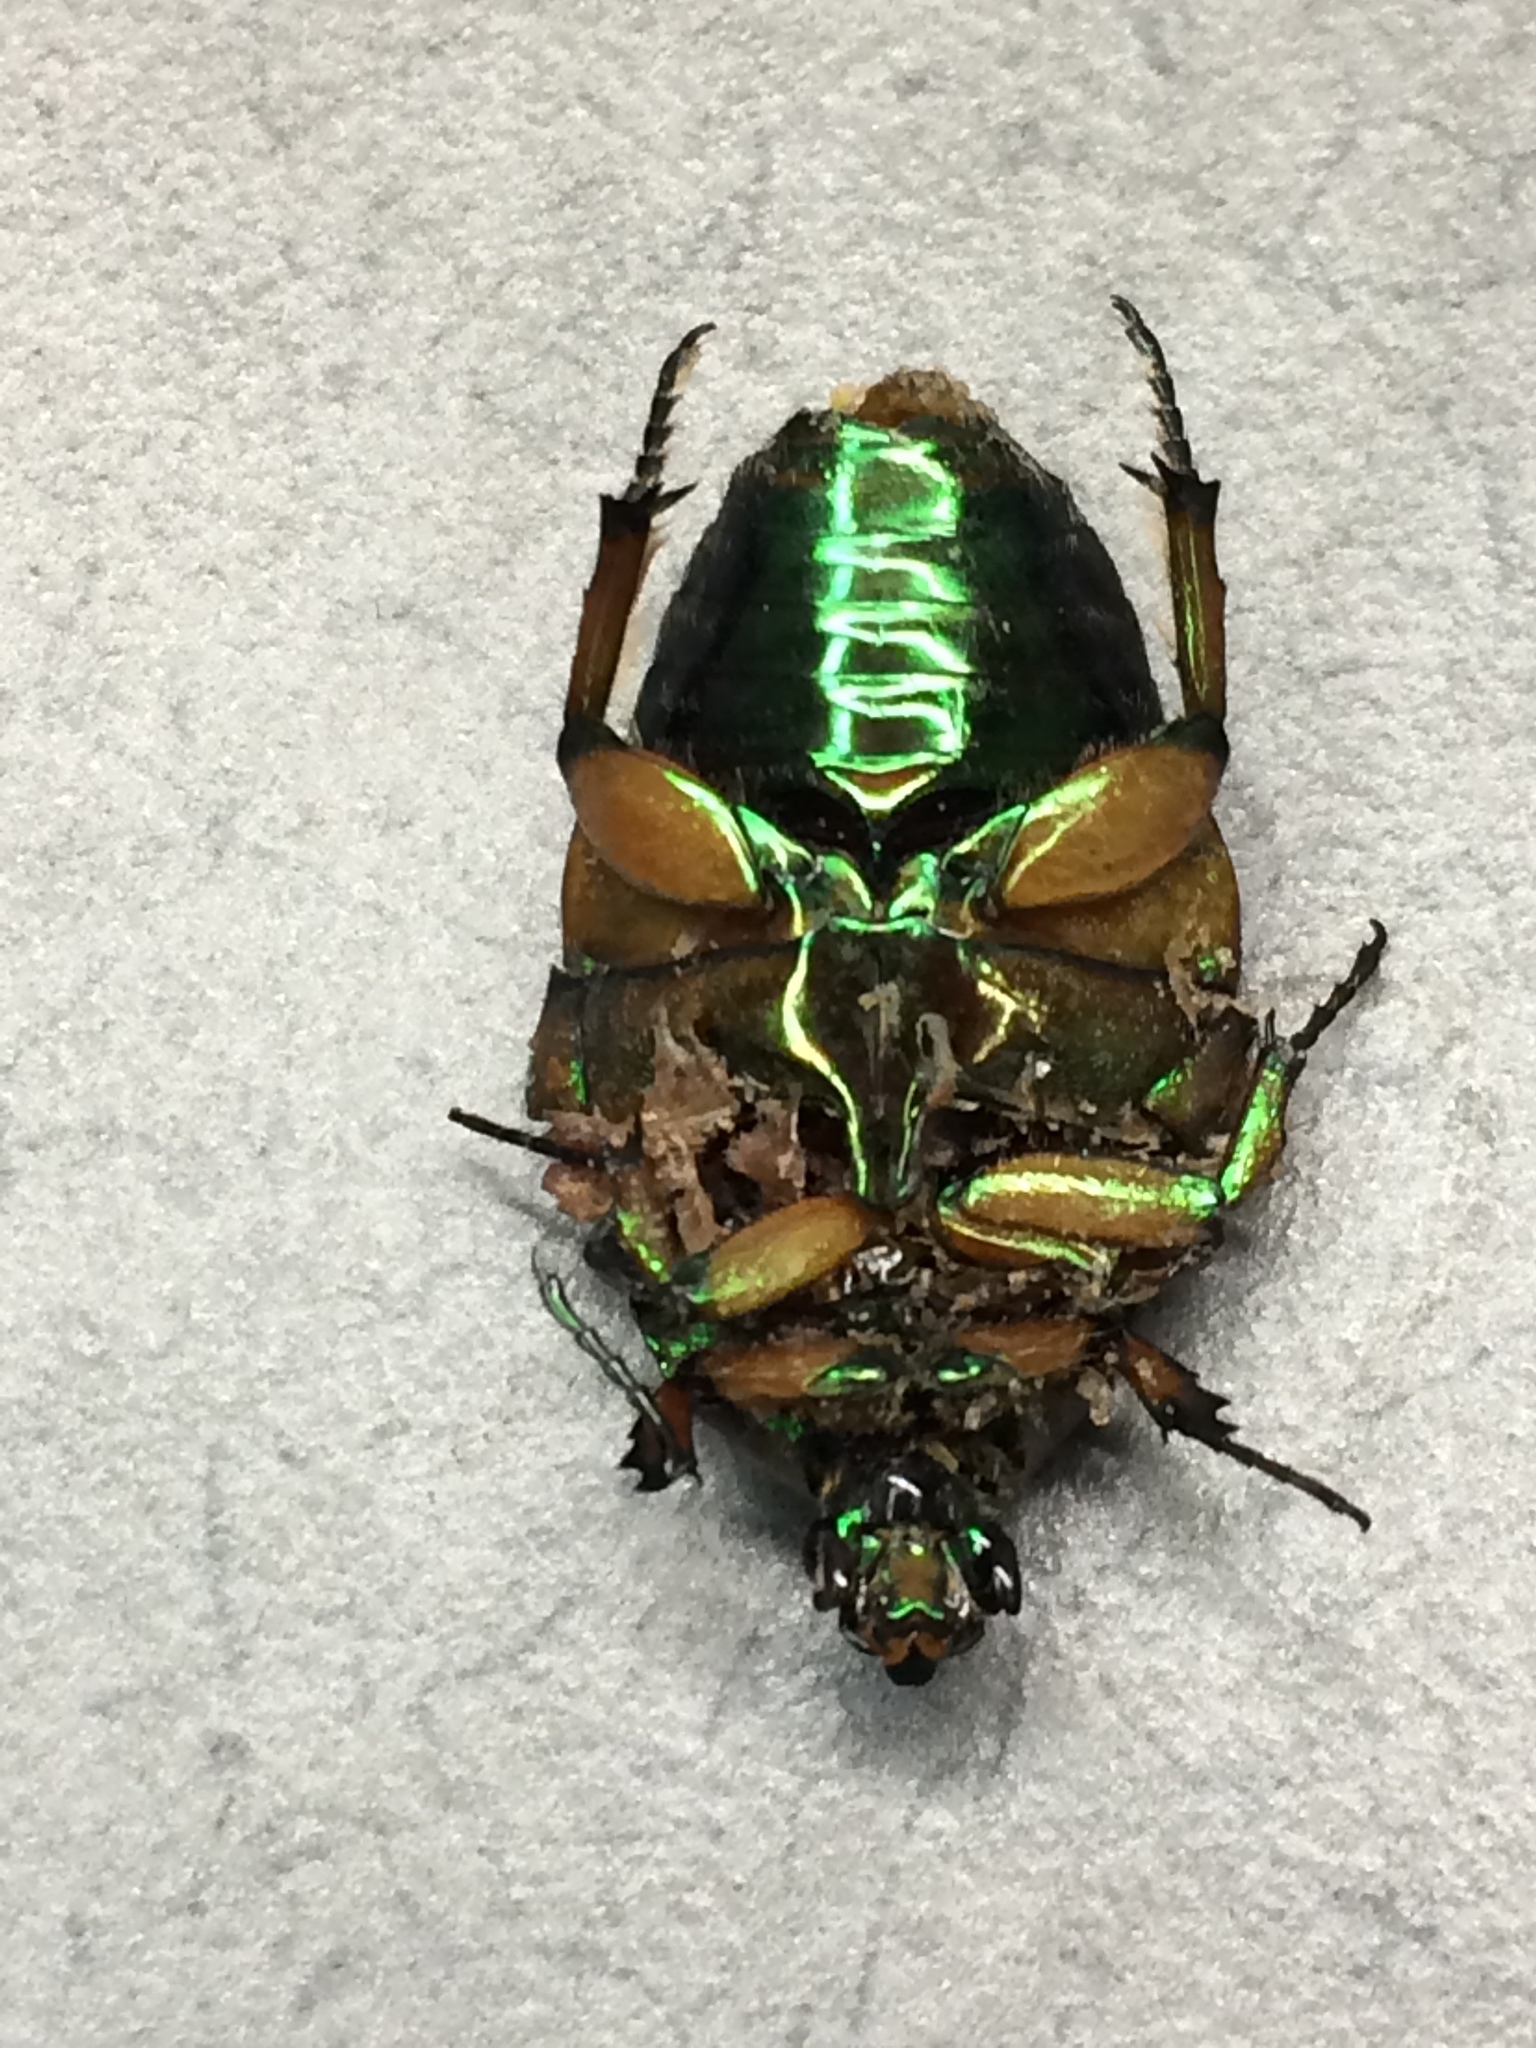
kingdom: Animalia
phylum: Arthropoda
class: Insecta
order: Coleoptera
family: Scarabaeidae
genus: Cotinis
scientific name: Cotinis nitida
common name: Common green june beetle
